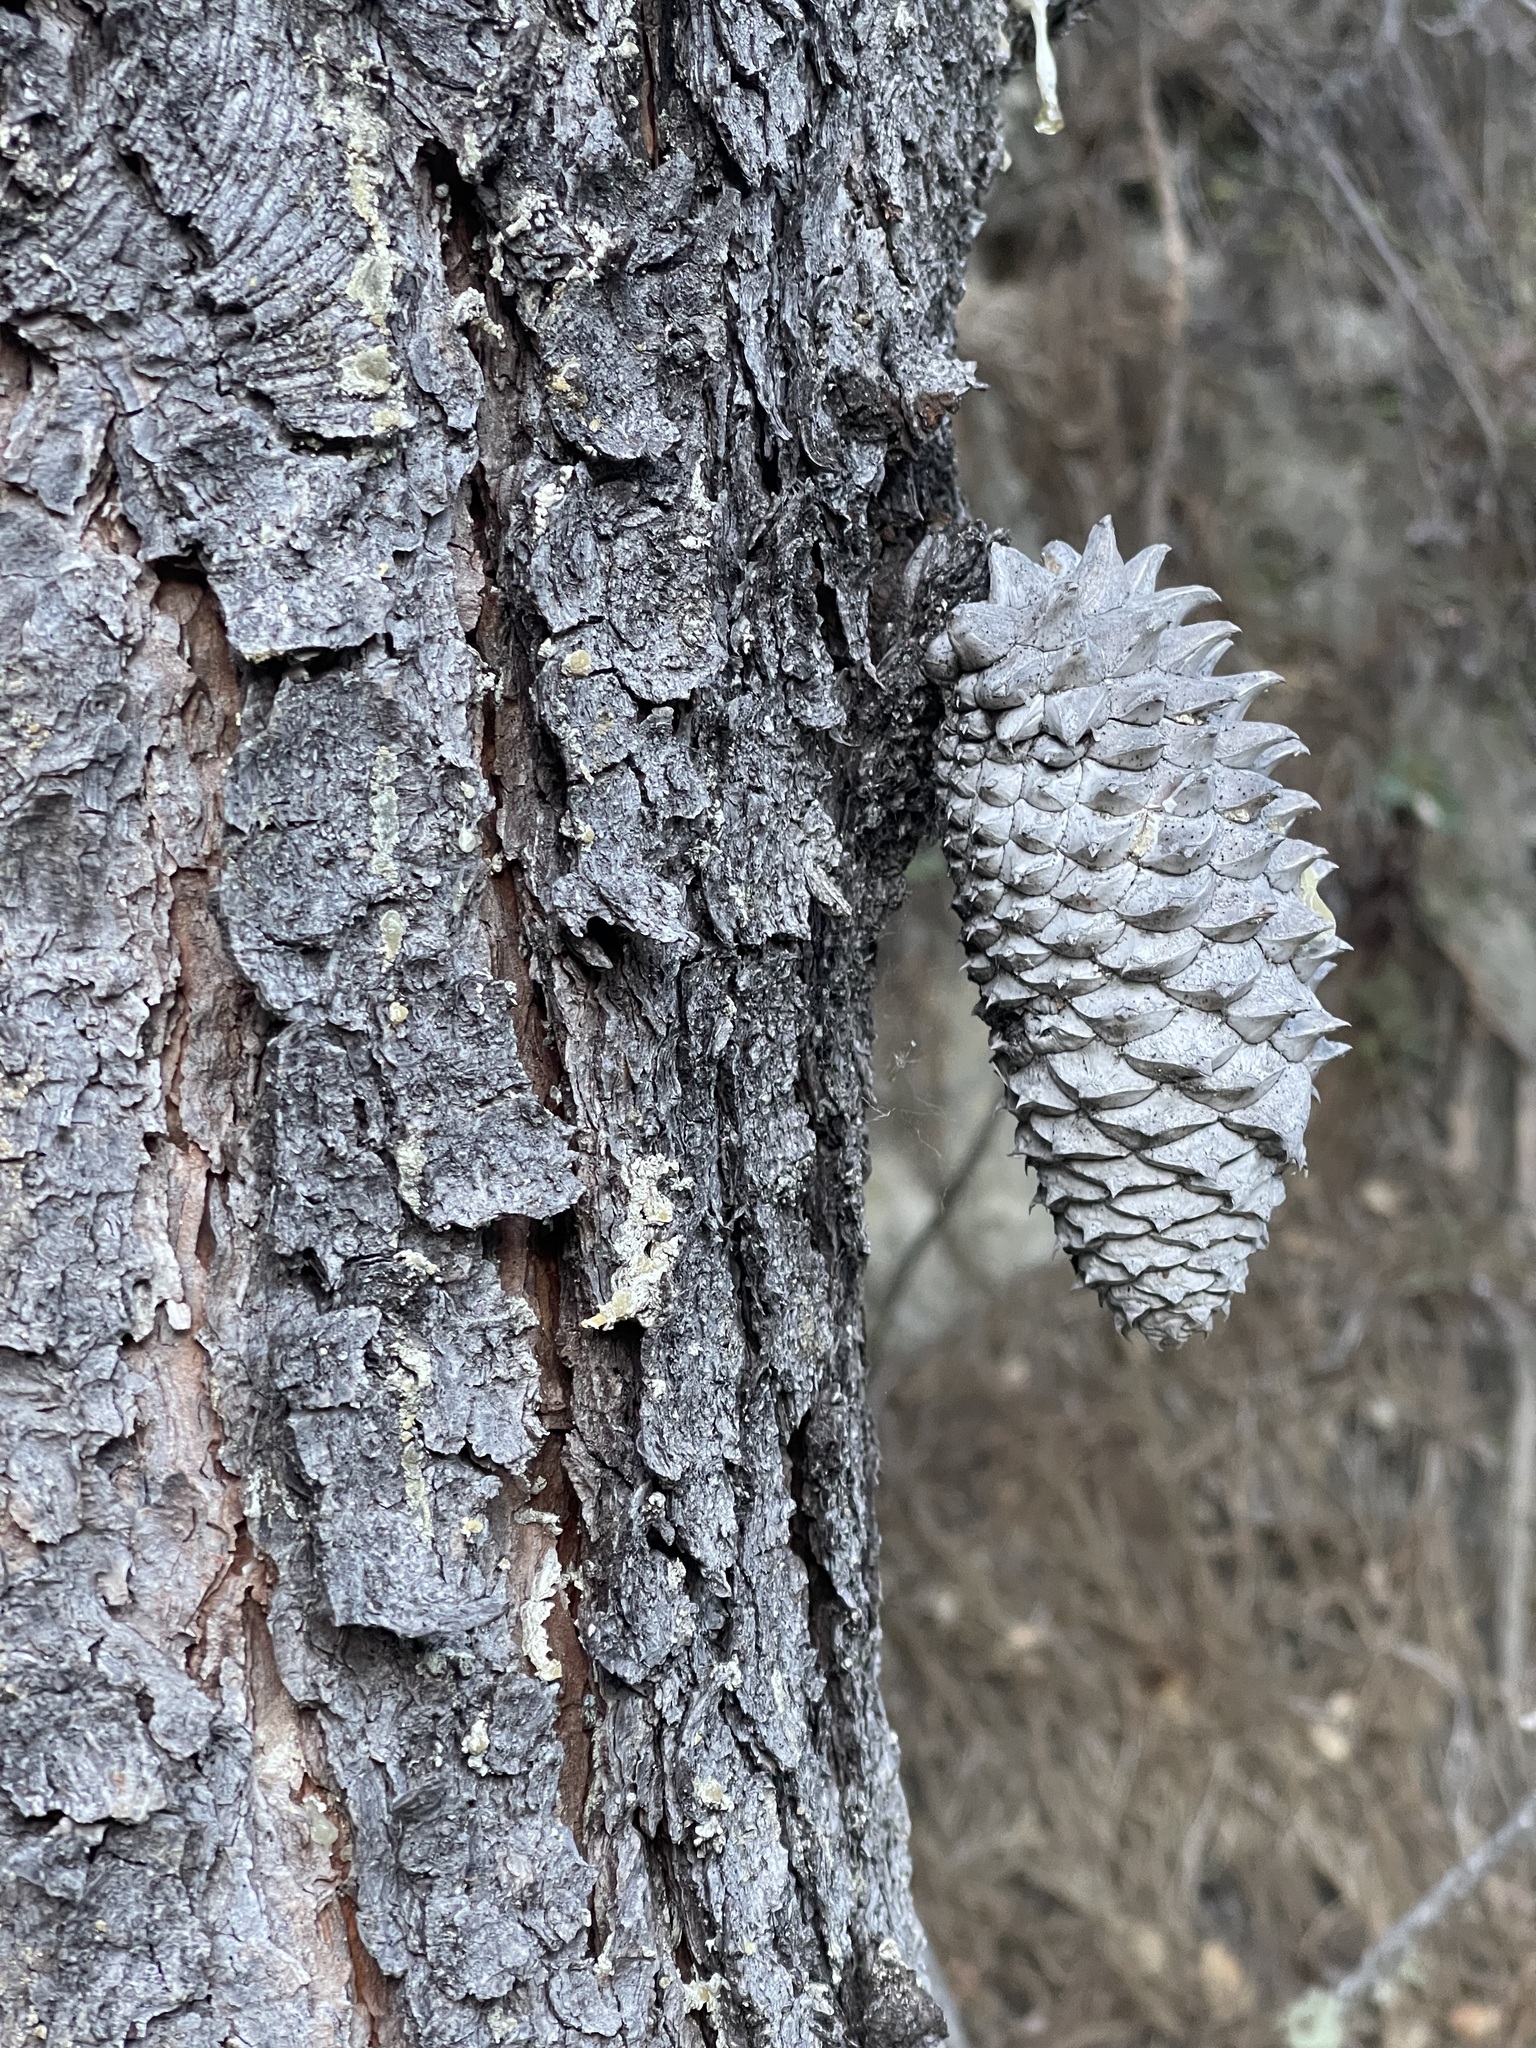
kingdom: Plantae
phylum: Tracheophyta
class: Pinopsida
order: Pinales
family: Pinaceae
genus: Pinus
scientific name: Pinus attenuata
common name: Knobcone pine
